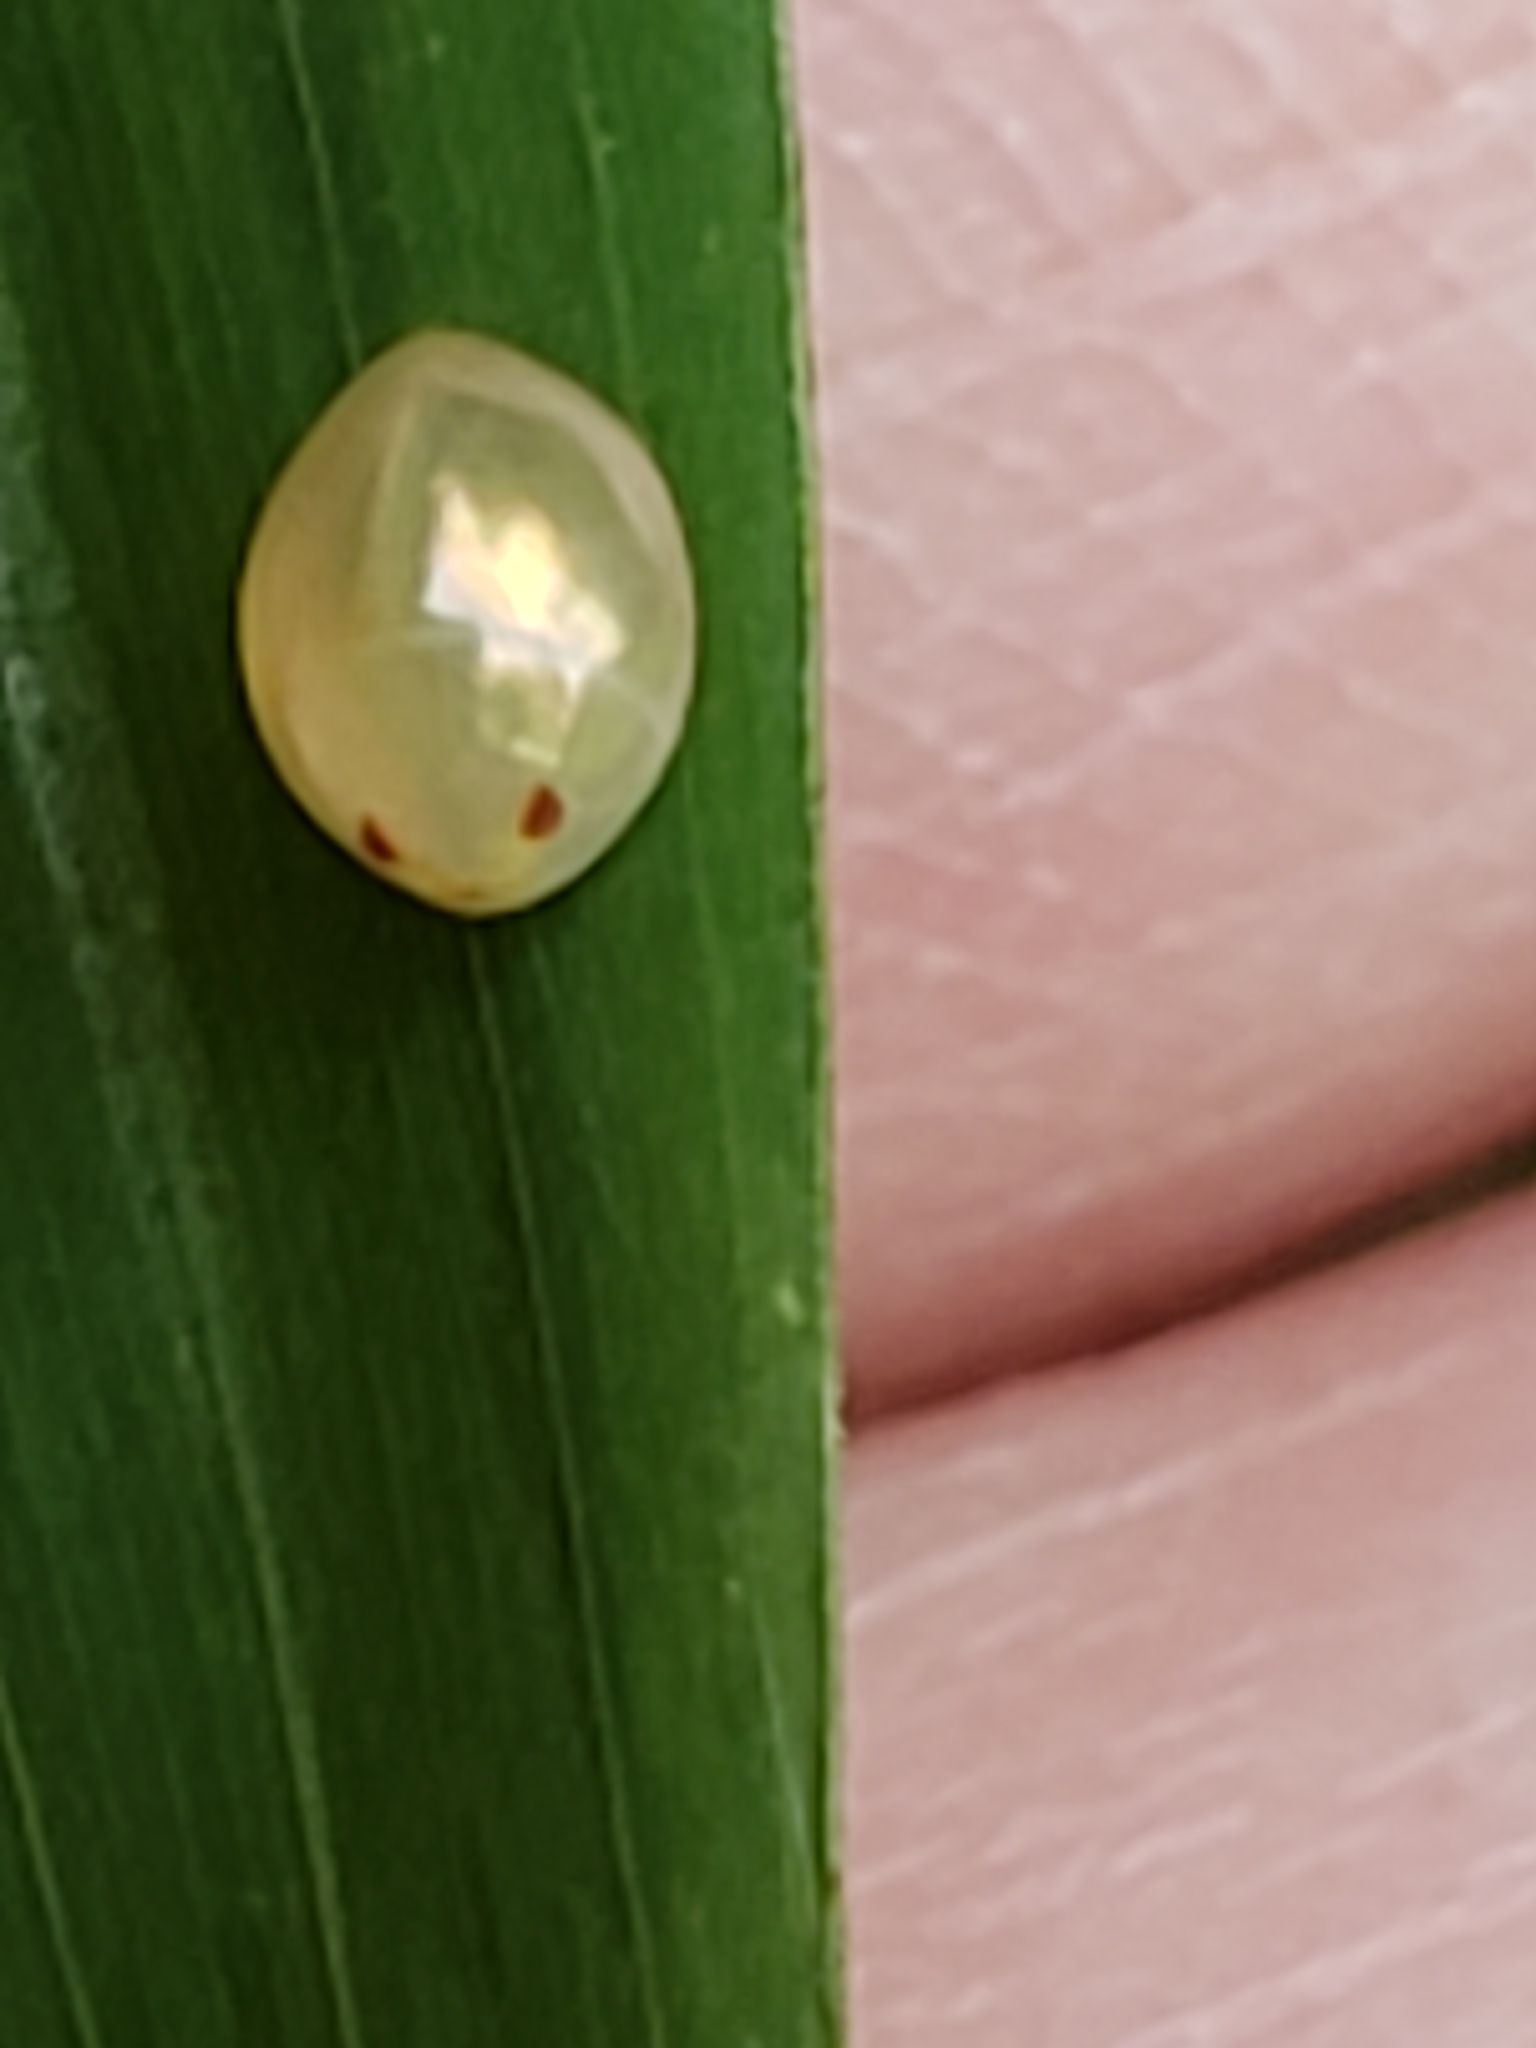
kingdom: Animalia
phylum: Arthropoda
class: Insecta
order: Hemiptera
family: Coreidae
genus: Acanthocephala
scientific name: Acanthocephala terminalis
